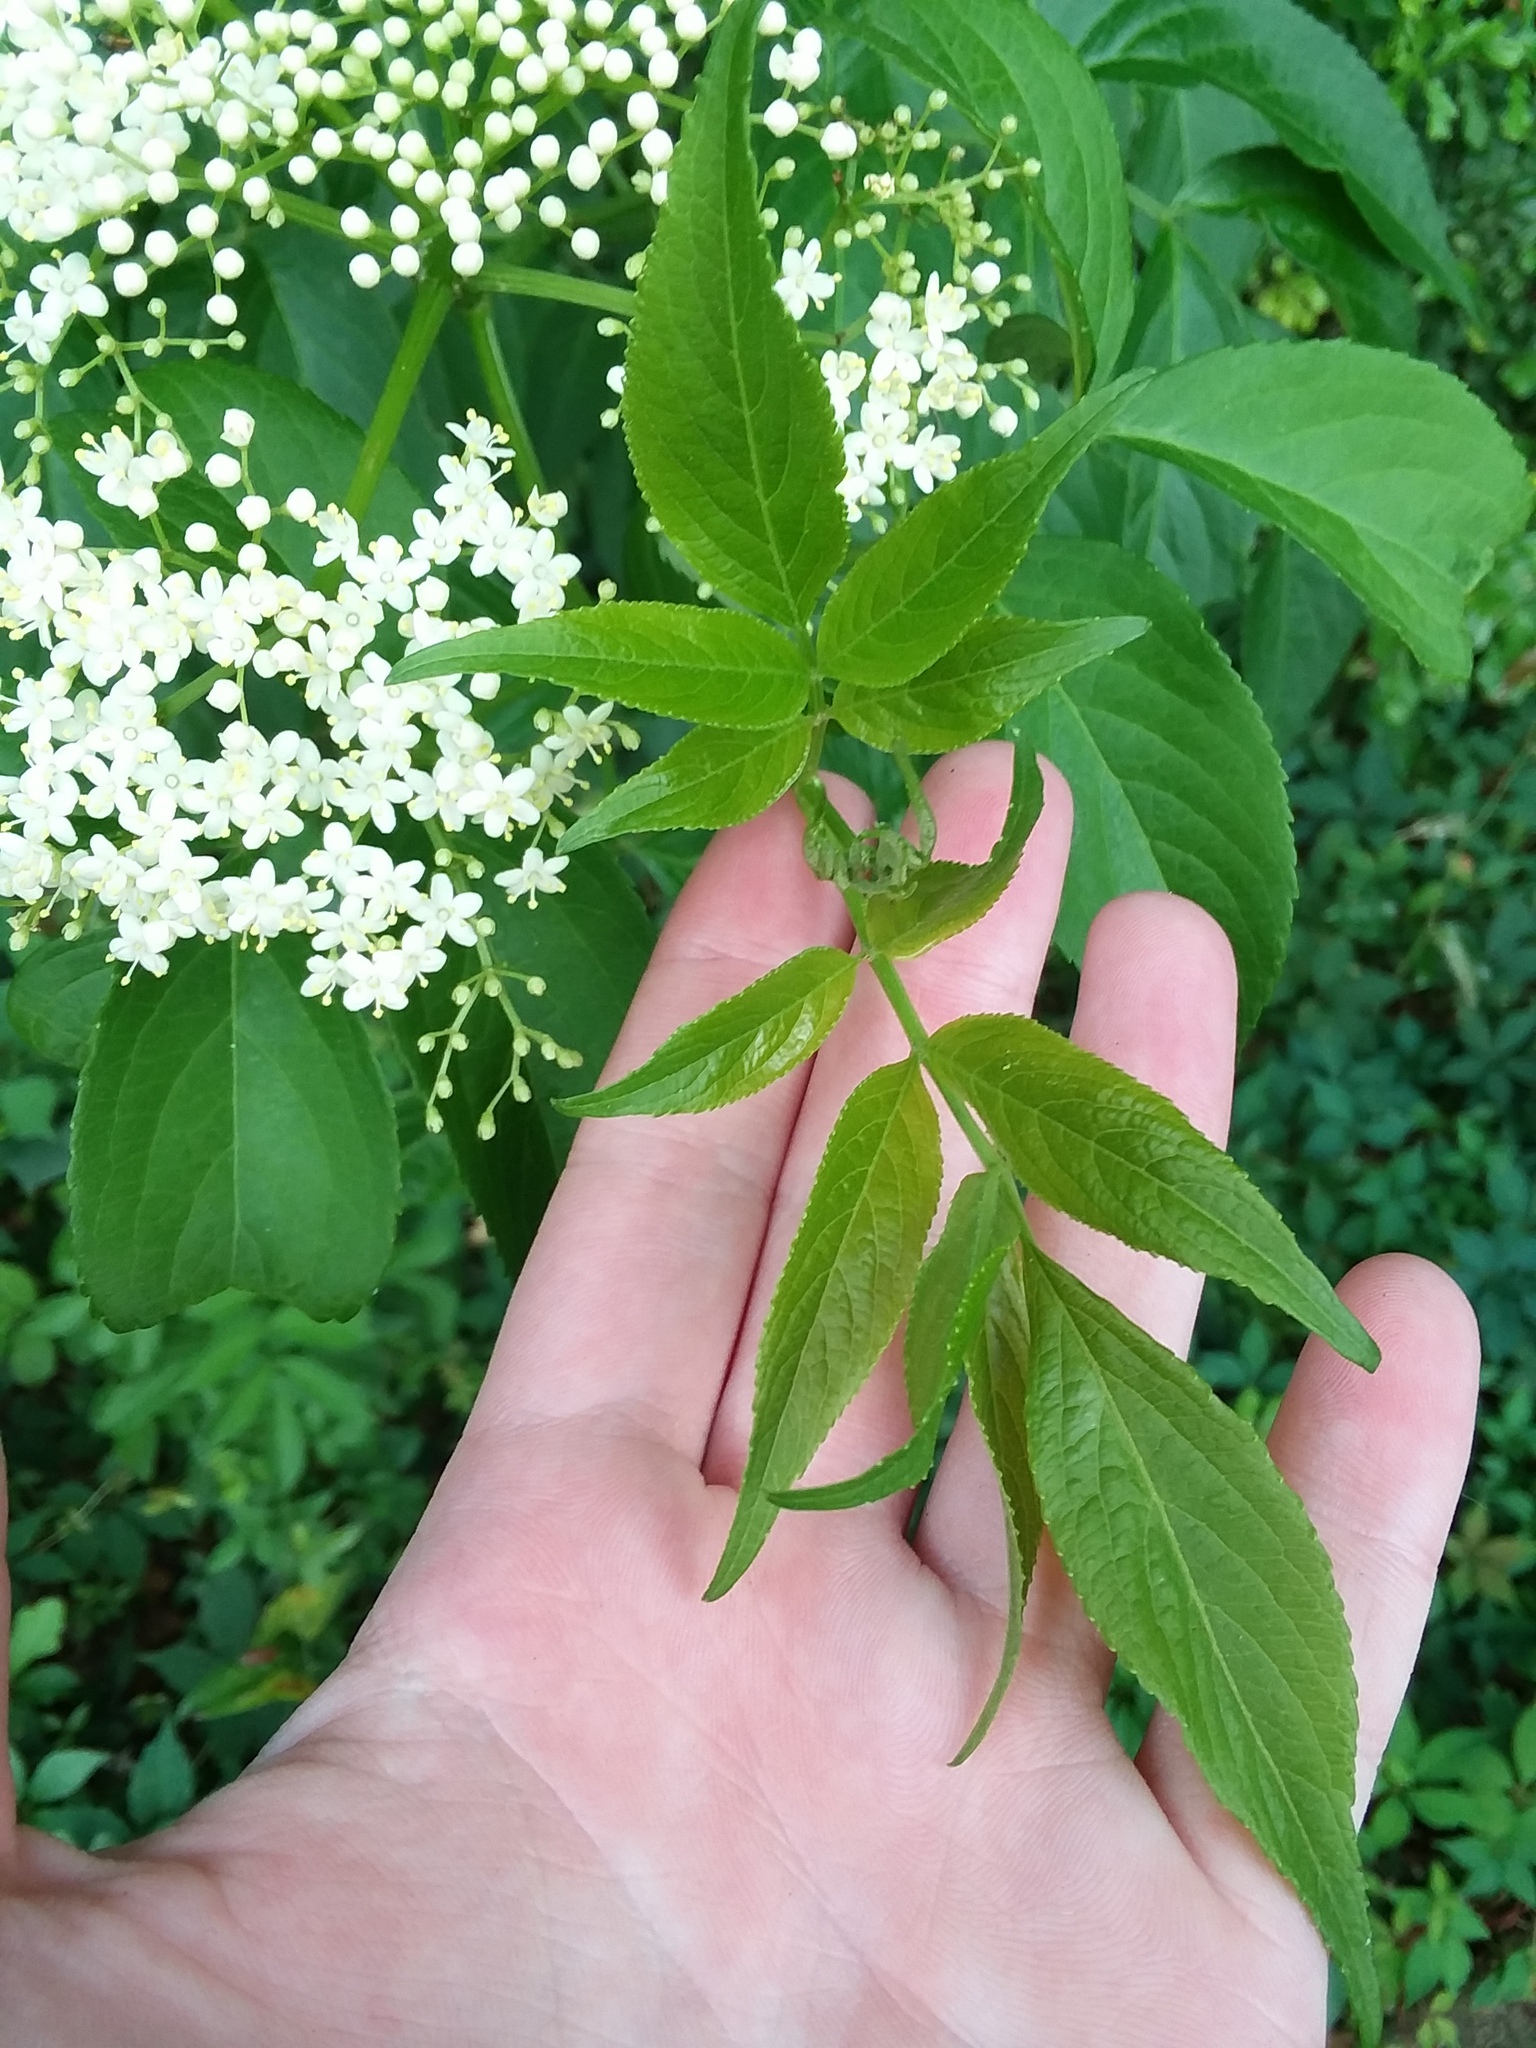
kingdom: Plantae
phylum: Tracheophyta
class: Magnoliopsida
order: Dipsacales
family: Viburnaceae
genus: Sambucus
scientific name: Sambucus canadensis
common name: American elder
